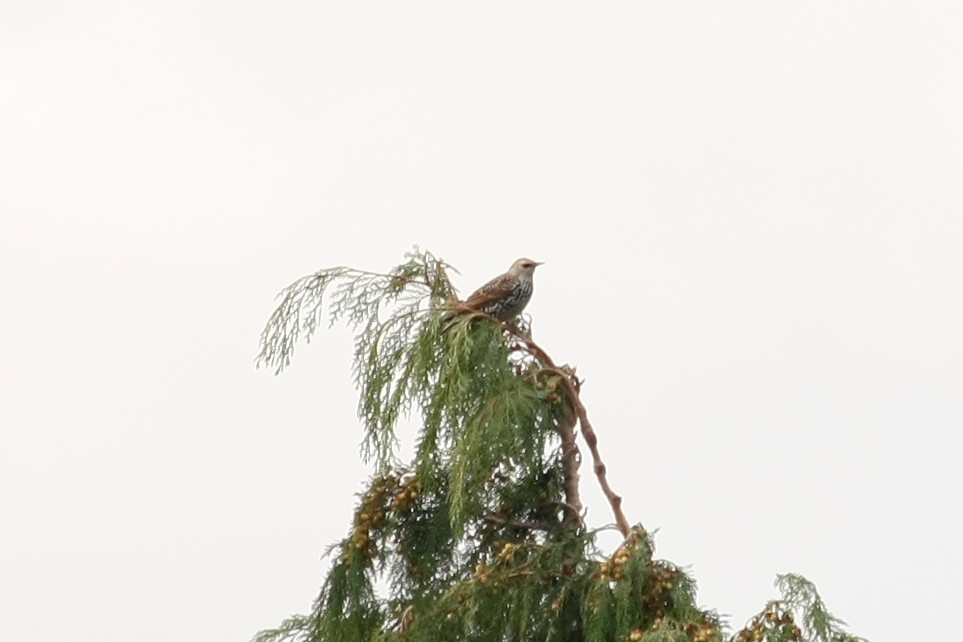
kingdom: Animalia
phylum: Chordata
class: Aves
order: Passeriformes
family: Sturnidae
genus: Sturnus
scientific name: Sturnus vulgaris
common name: Common starling
